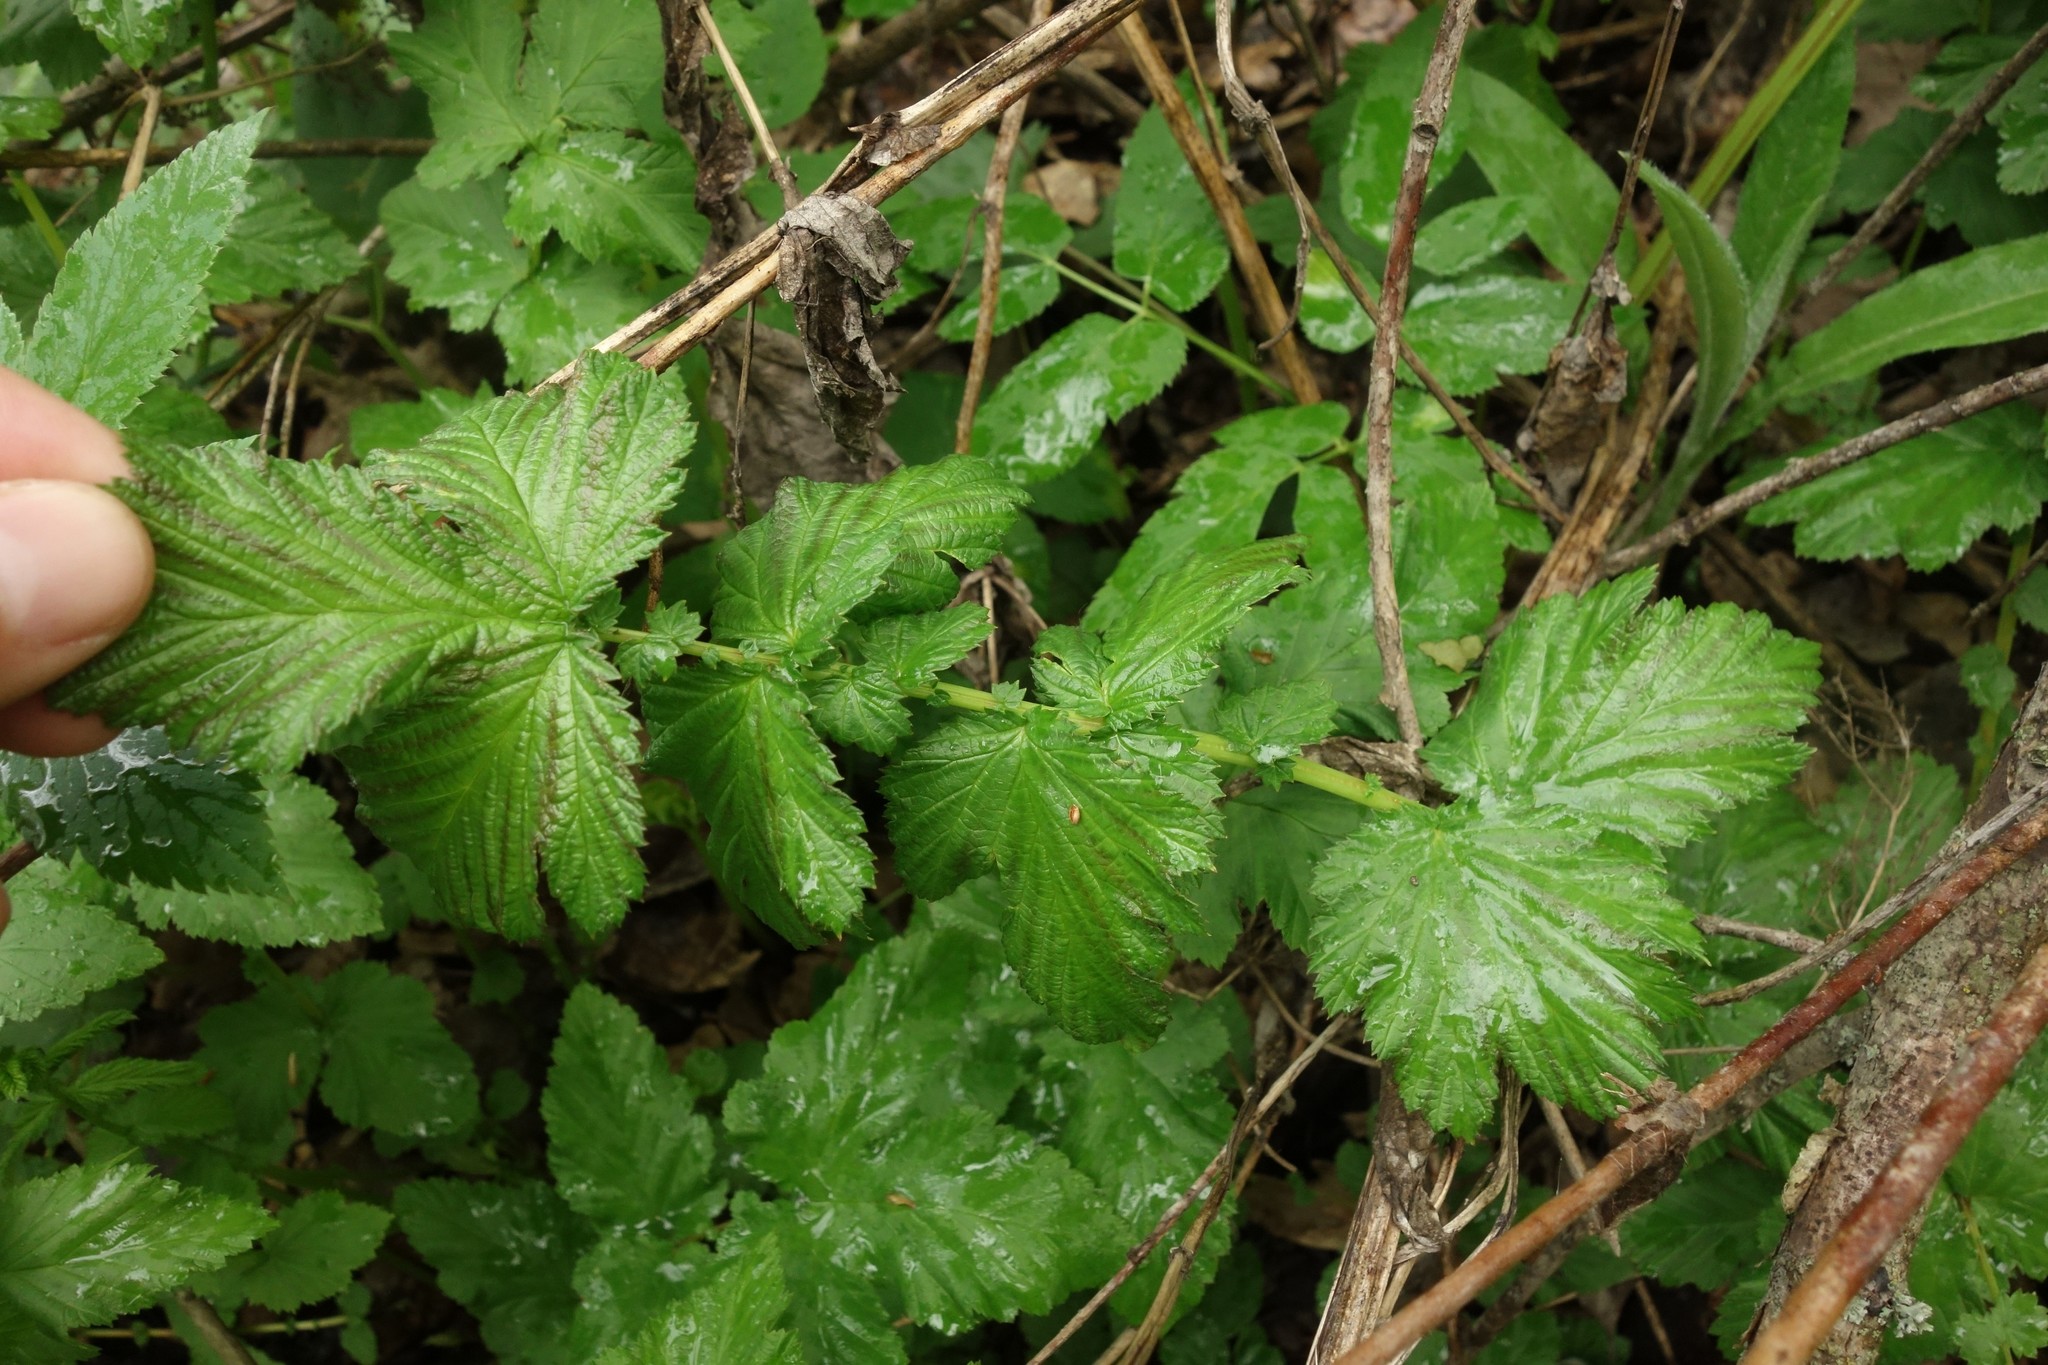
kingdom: Plantae
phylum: Tracheophyta
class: Magnoliopsida
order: Rosales
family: Rosaceae
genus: Filipendula
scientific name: Filipendula ulmaria
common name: Meadowsweet
